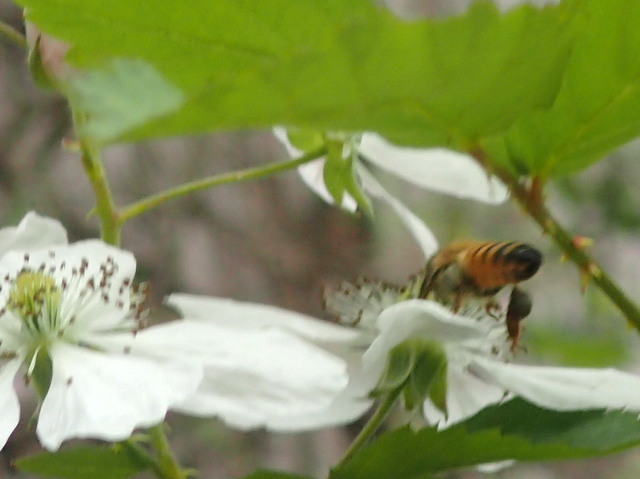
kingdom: Animalia
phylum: Arthropoda
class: Insecta
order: Hymenoptera
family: Apidae
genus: Apis
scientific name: Apis mellifera
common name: Honey bee
